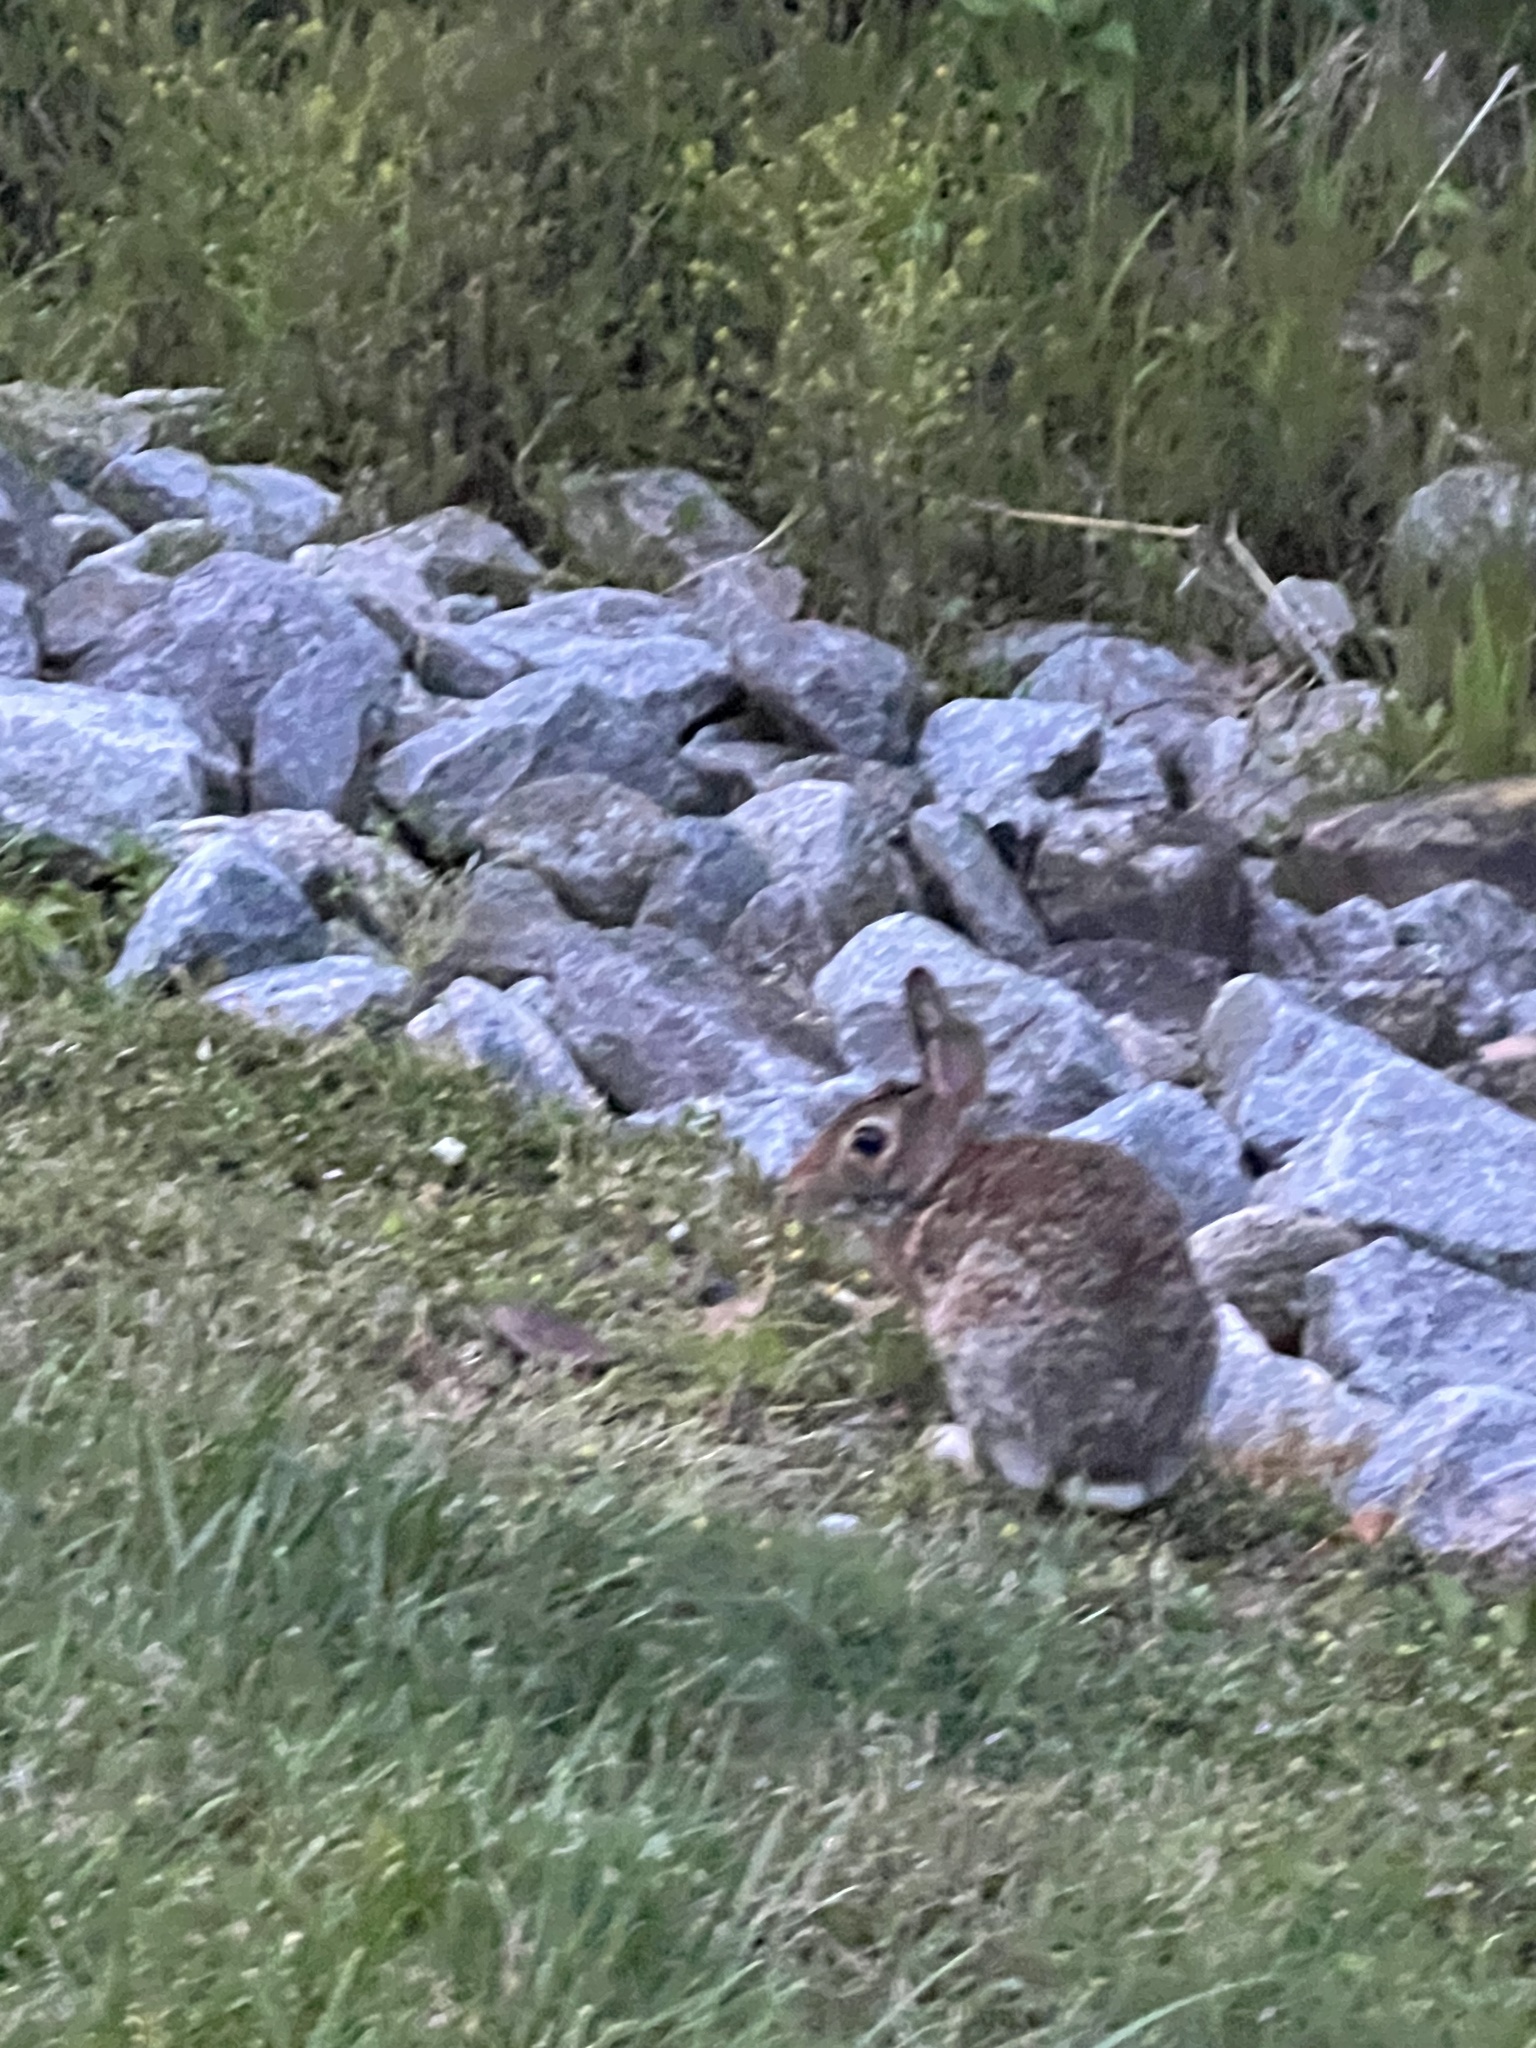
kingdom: Animalia
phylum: Chordata
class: Mammalia
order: Lagomorpha
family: Leporidae
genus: Sylvilagus
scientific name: Sylvilagus floridanus
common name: Eastern cottontail
